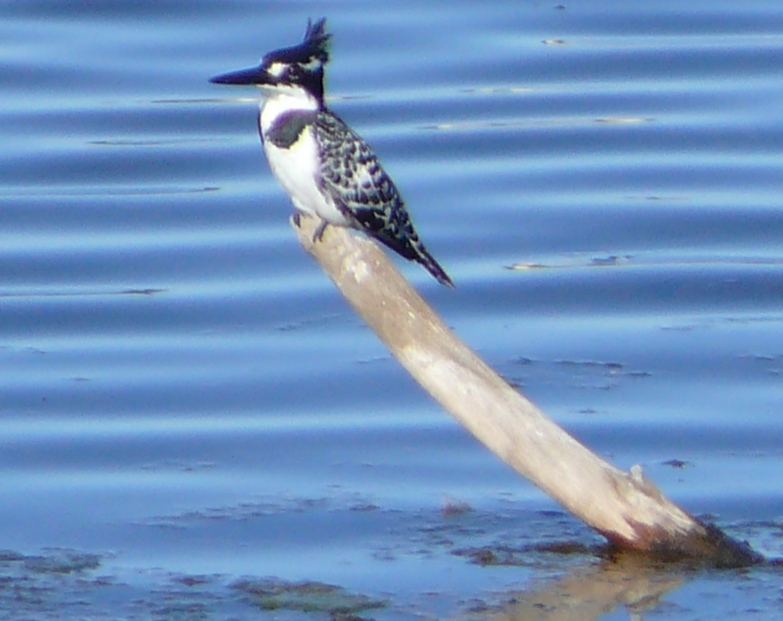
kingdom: Animalia
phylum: Chordata
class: Aves
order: Coraciiformes
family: Alcedinidae
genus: Ceryle
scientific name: Ceryle rudis
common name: Pied kingfisher
